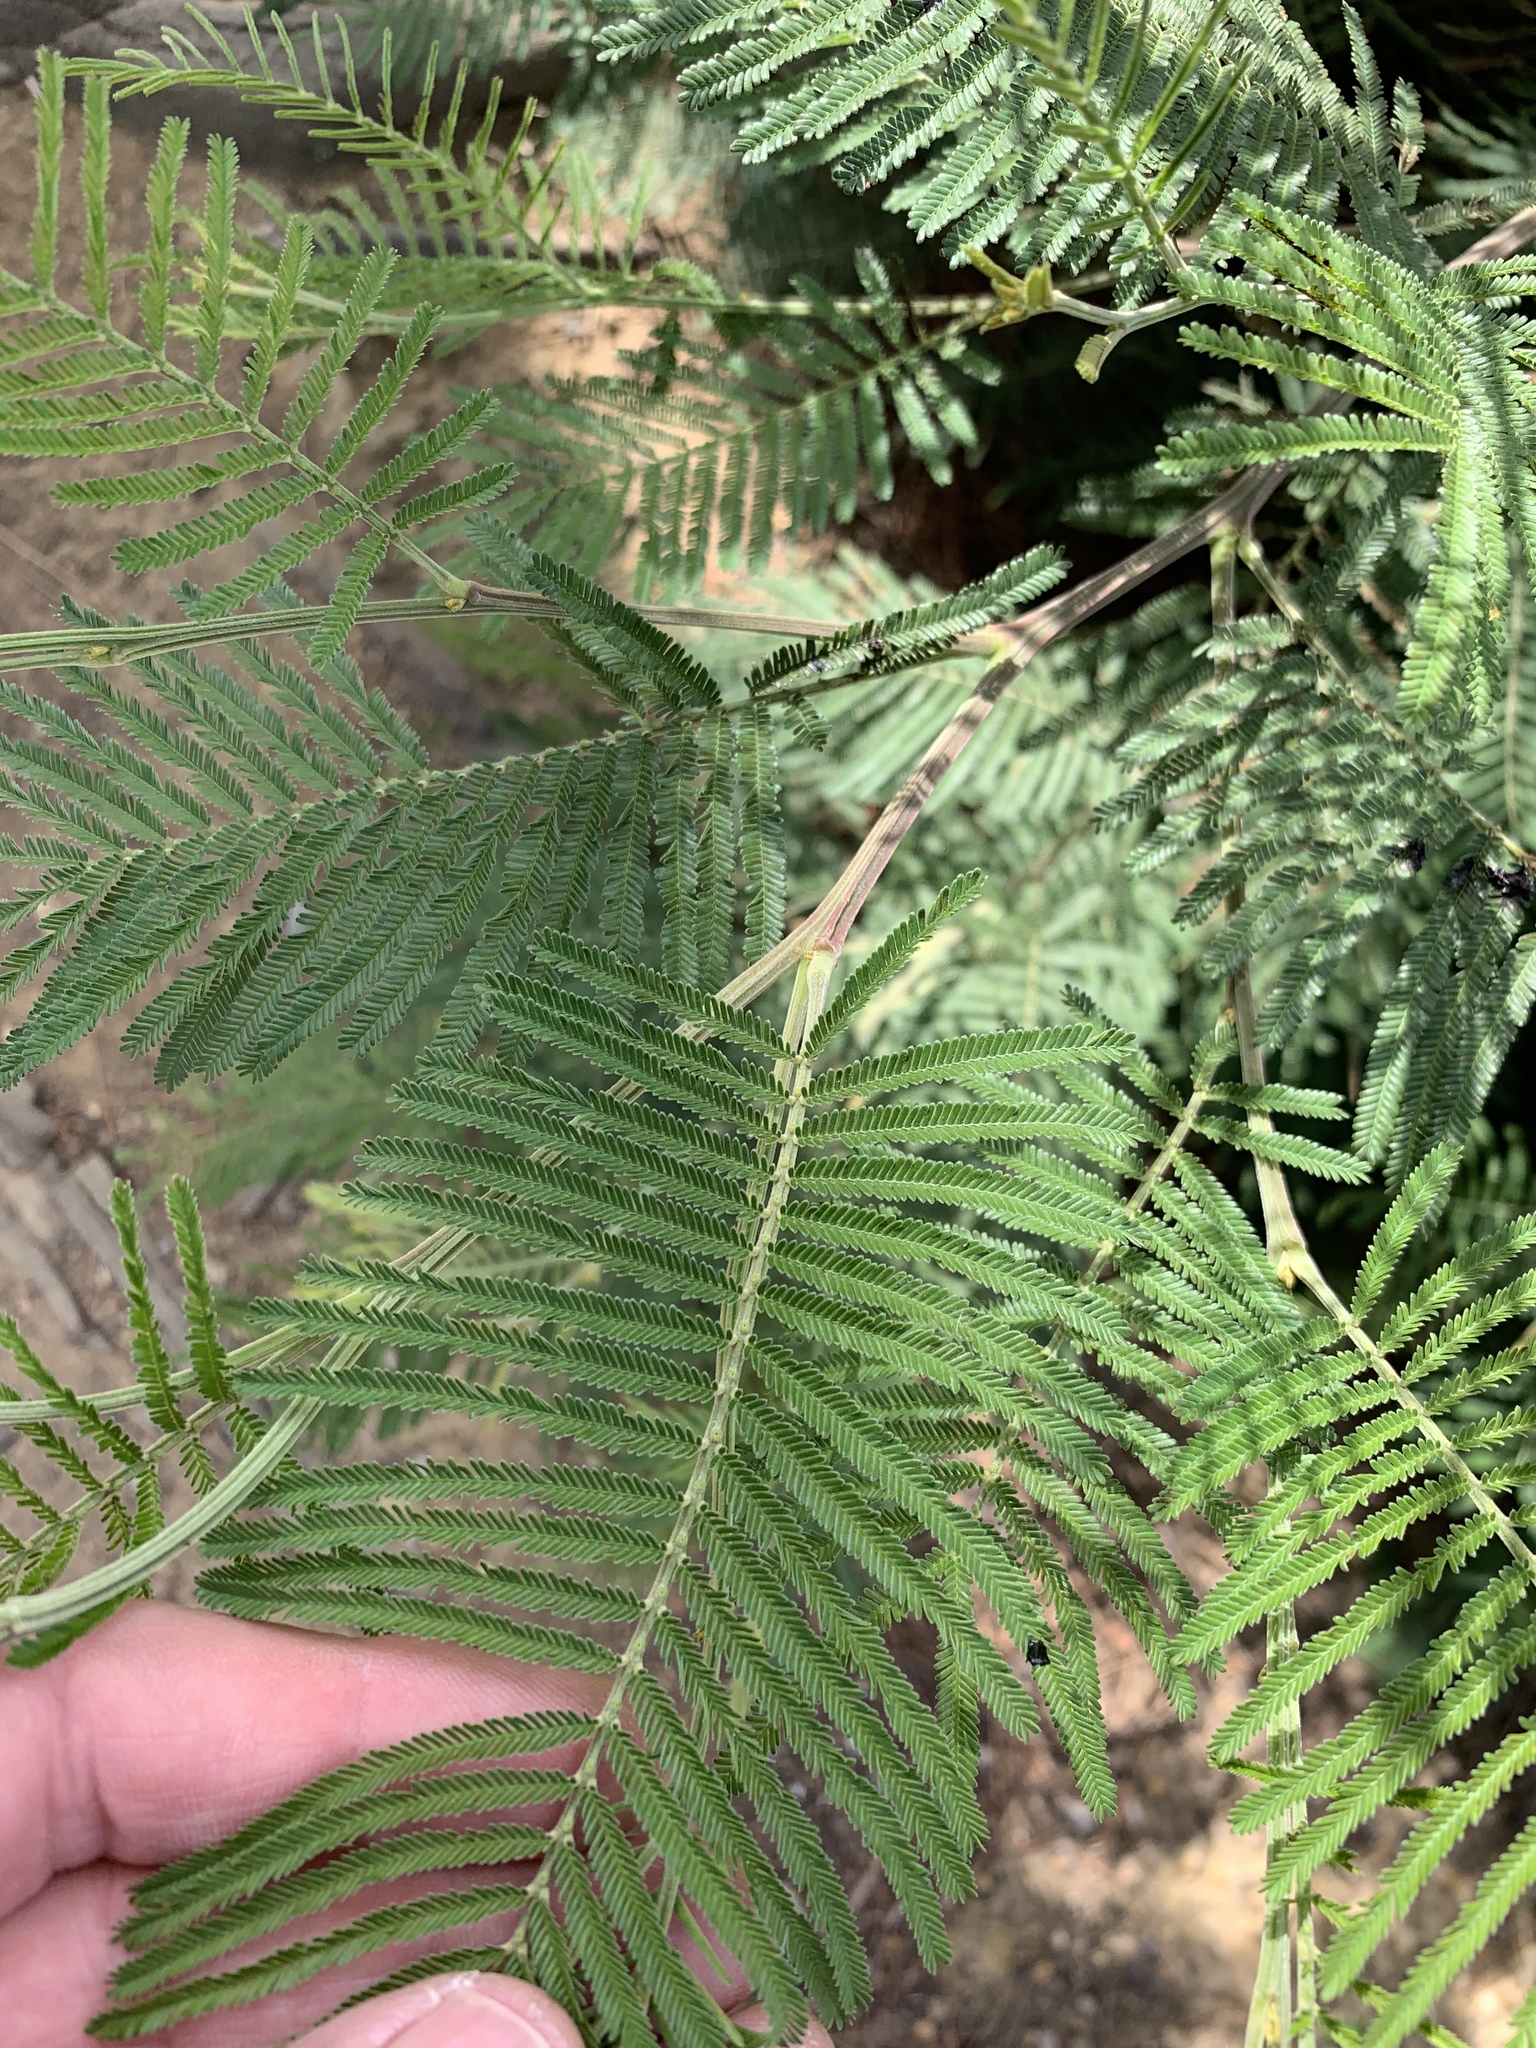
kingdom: Plantae
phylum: Tracheophyta
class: Magnoliopsida
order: Fabales
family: Fabaceae
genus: Acacia
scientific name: Acacia mearnsii
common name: Black wattle
